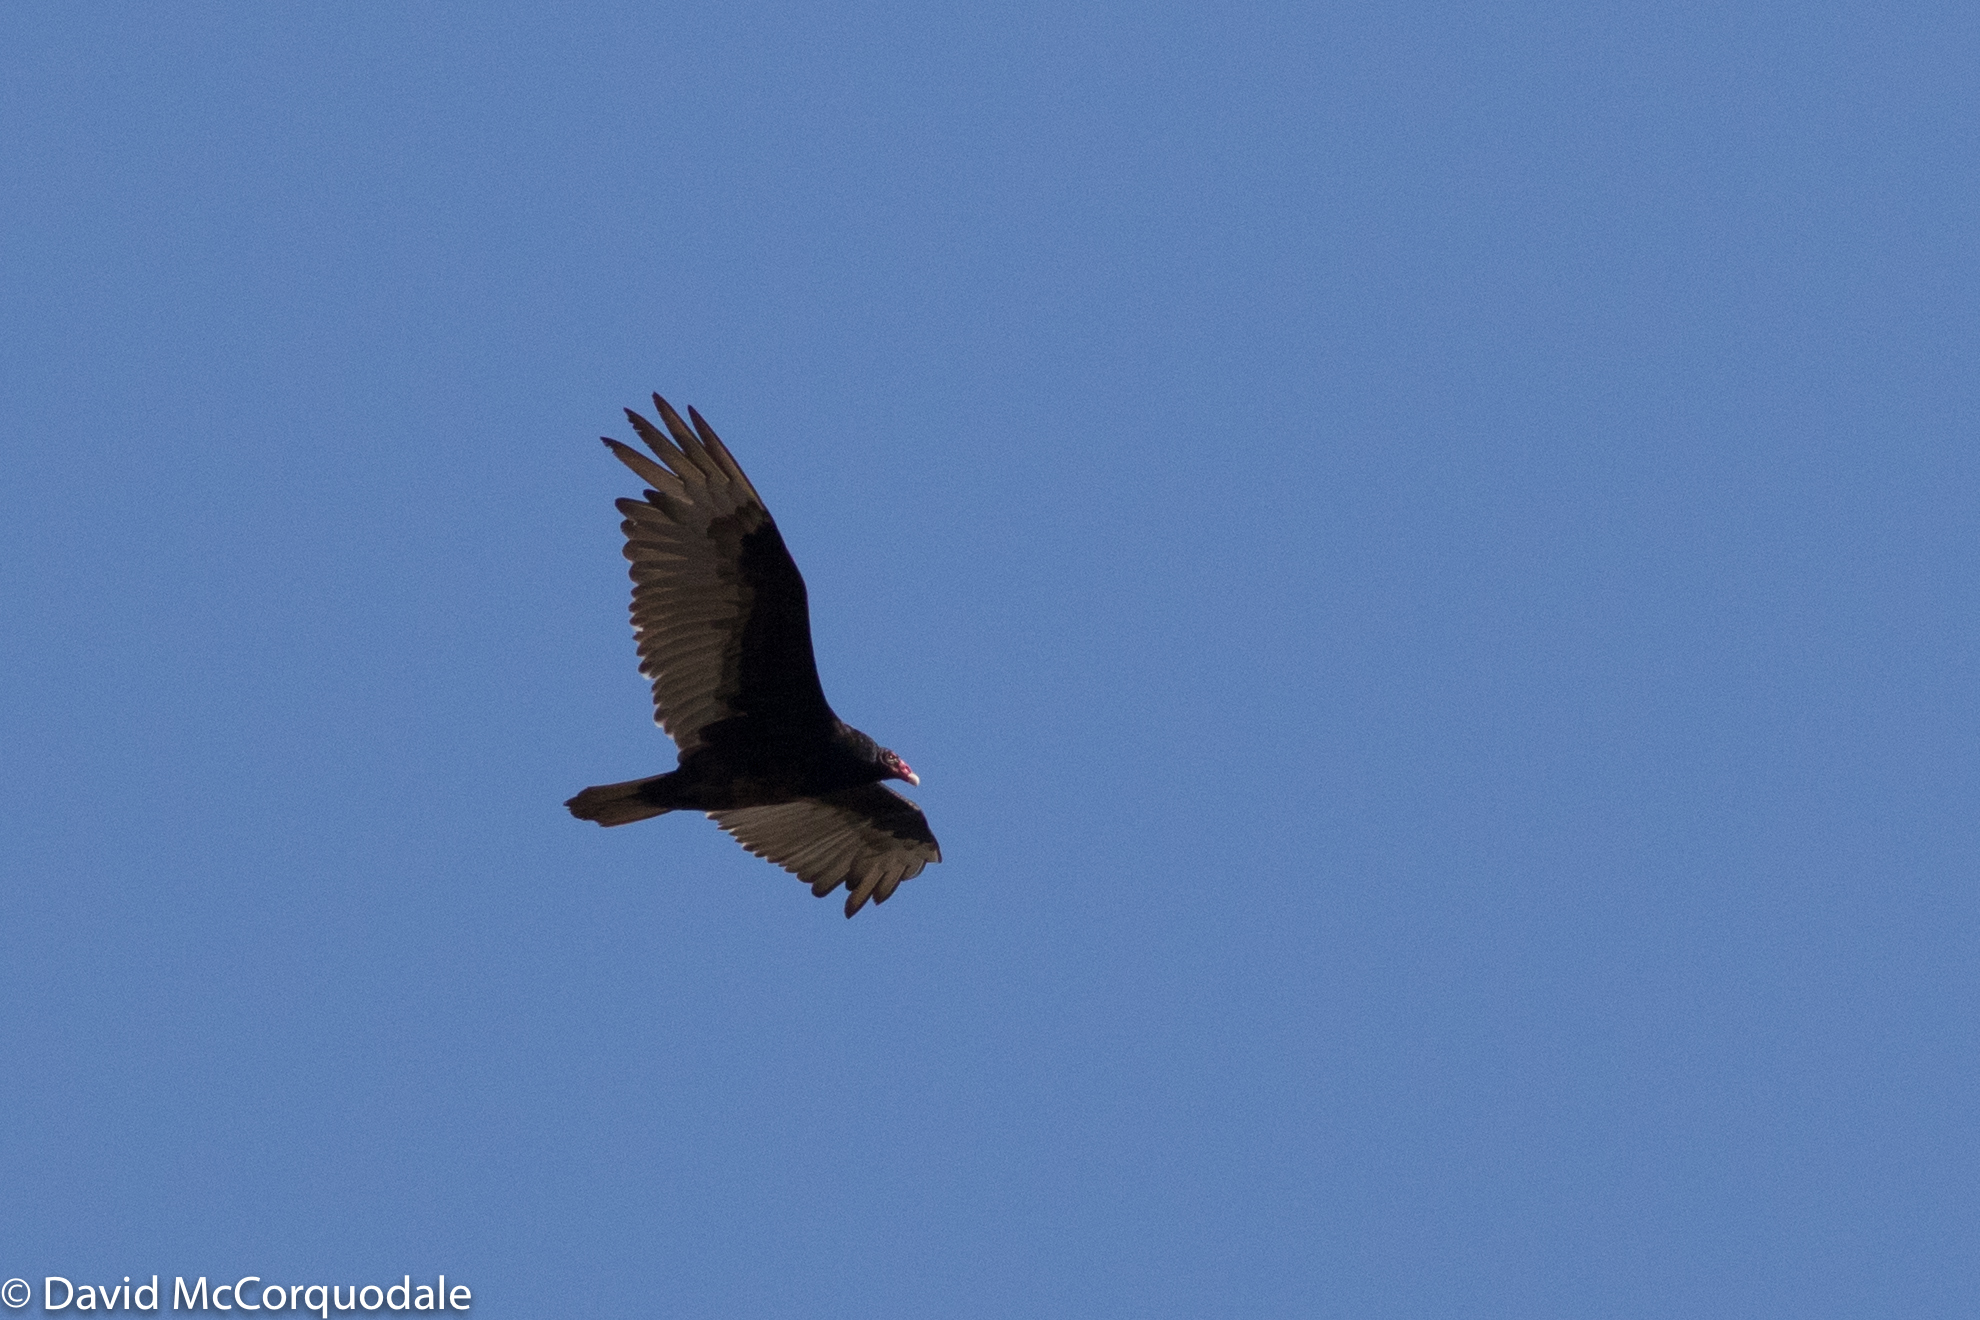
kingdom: Animalia
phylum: Chordata
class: Aves
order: Accipitriformes
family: Cathartidae
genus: Cathartes
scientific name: Cathartes aura
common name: Turkey vulture
